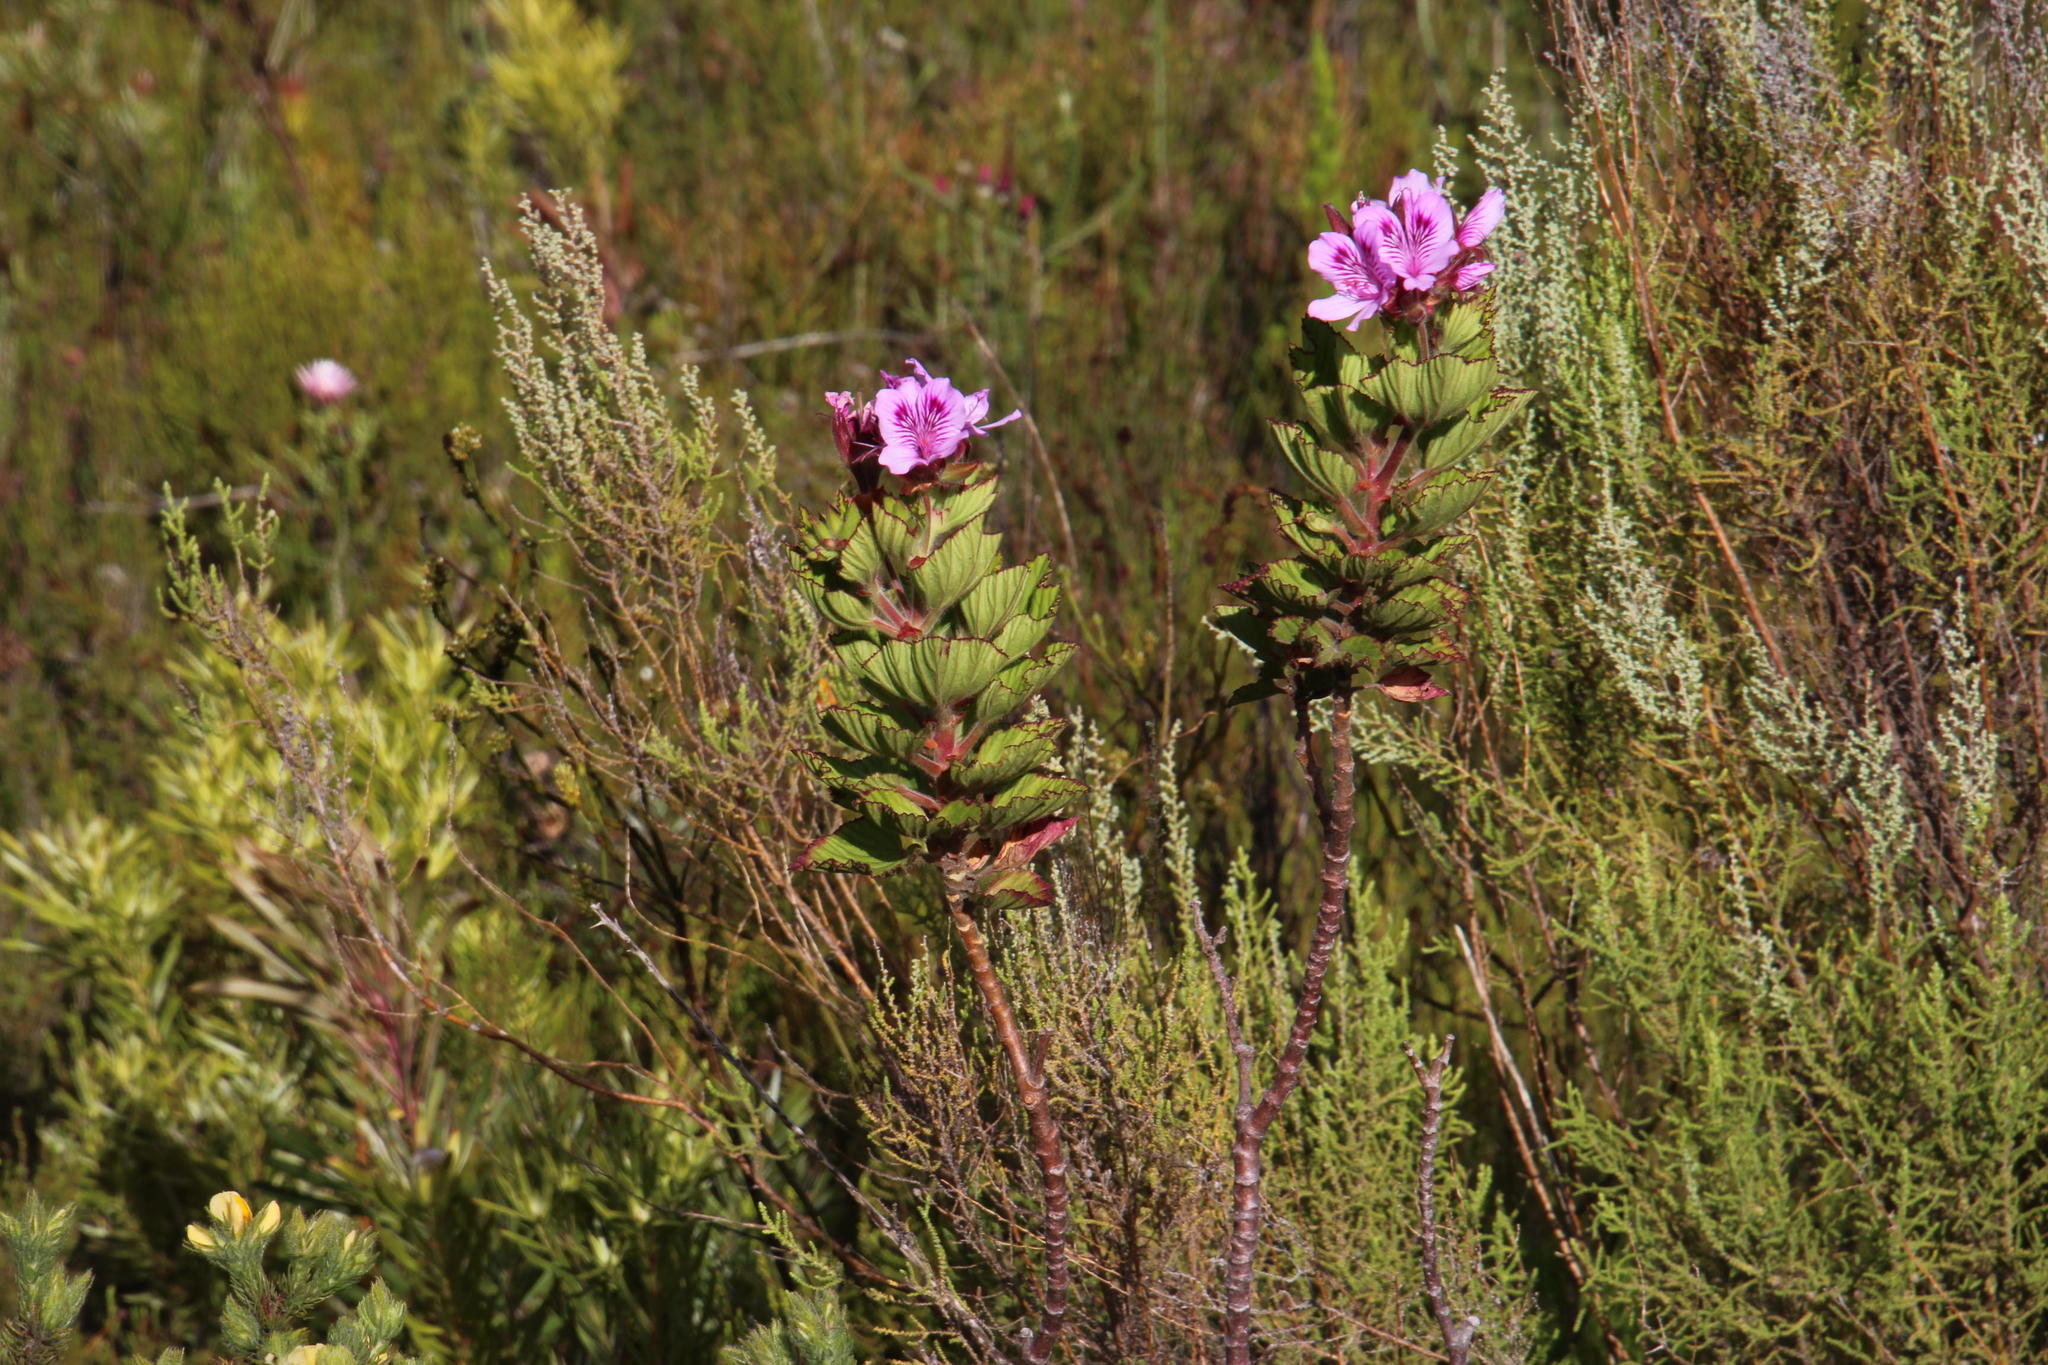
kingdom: Plantae
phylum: Tracheophyta
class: Magnoliopsida
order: Geraniales
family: Geraniaceae
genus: Pelargonium
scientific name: Pelargonium cucullatum
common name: Tree pelargonium
